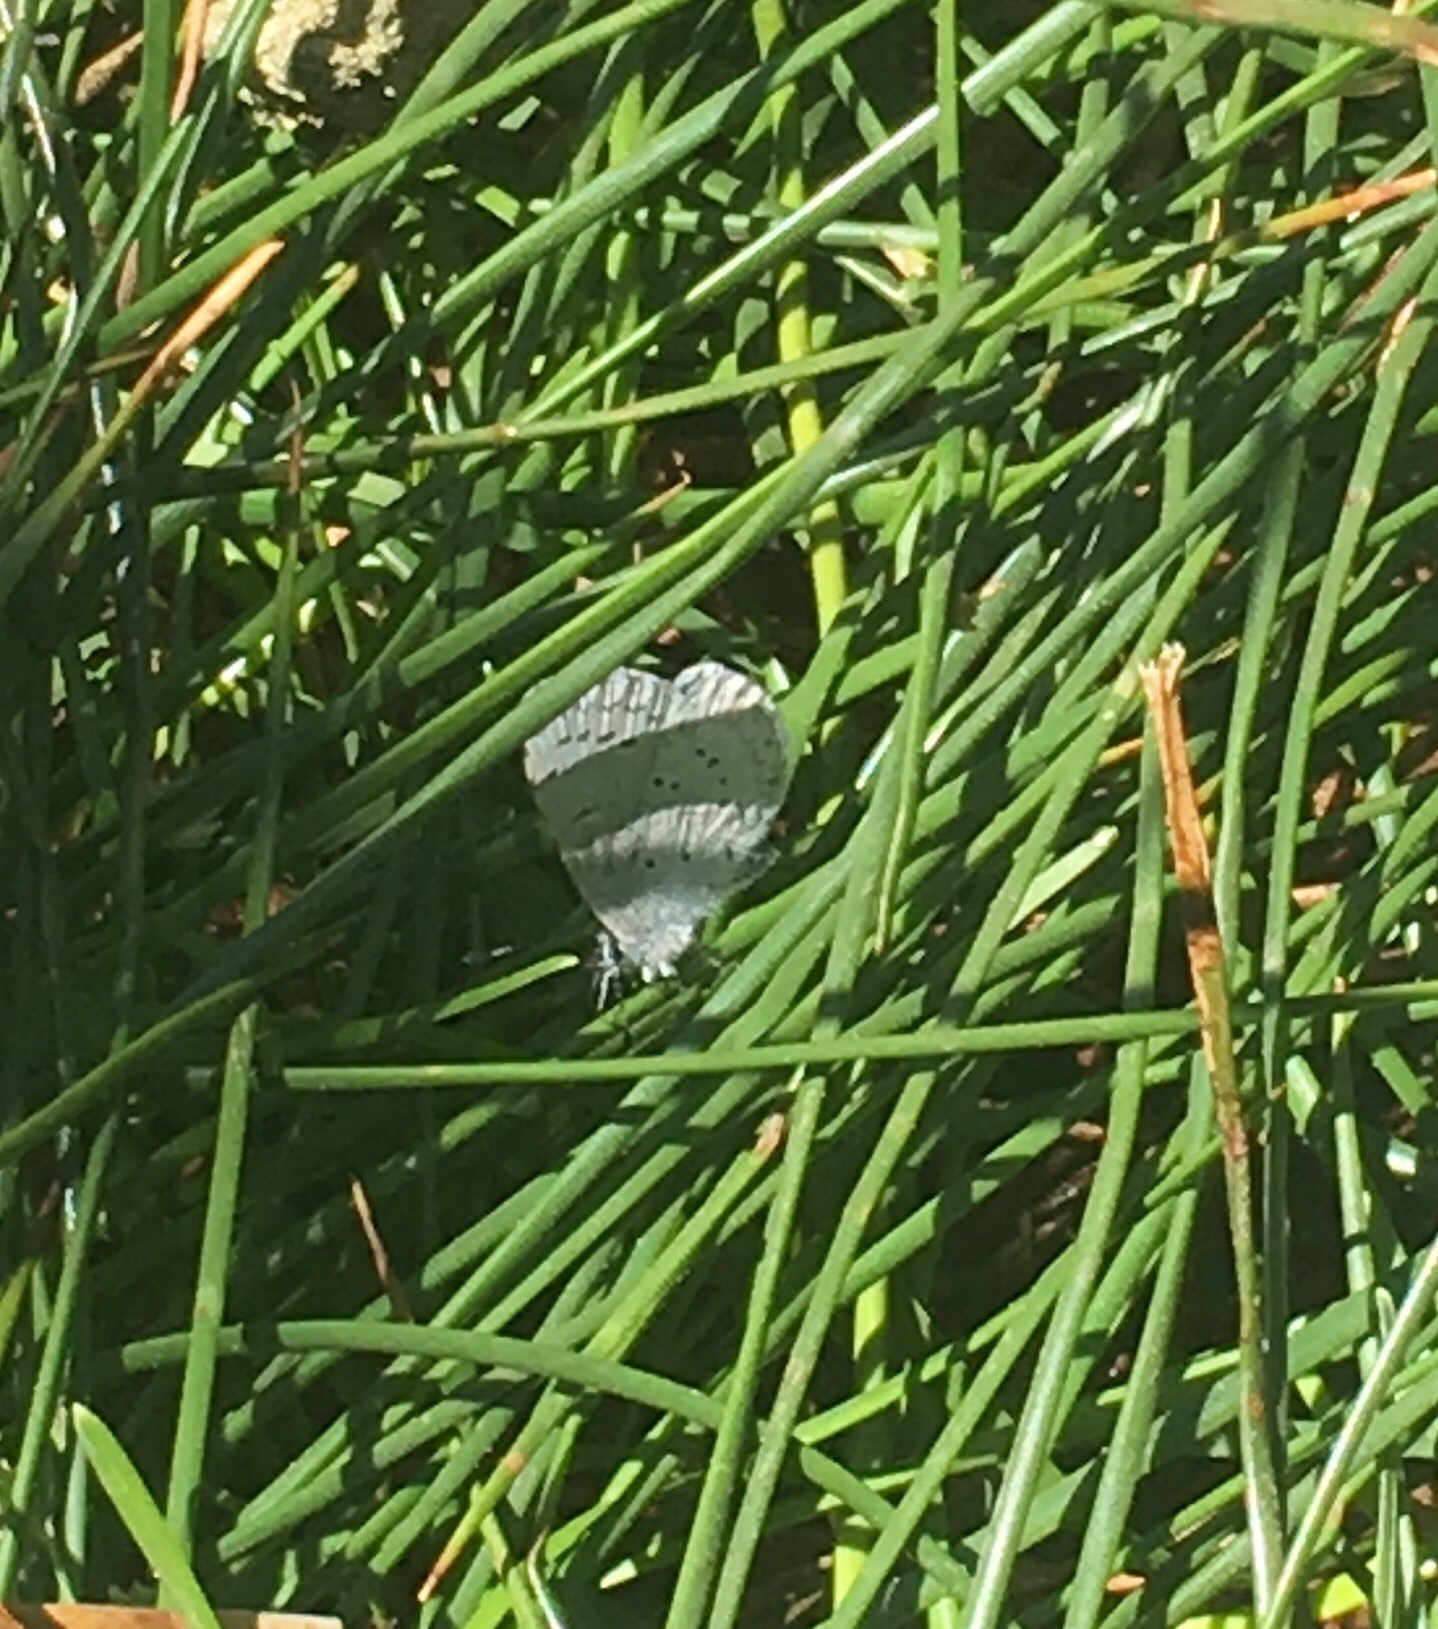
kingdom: Animalia
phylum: Arthropoda
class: Insecta
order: Lepidoptera
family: Lycaenidae
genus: Celastrina
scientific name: Celastrina ladon
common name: Spring azure
